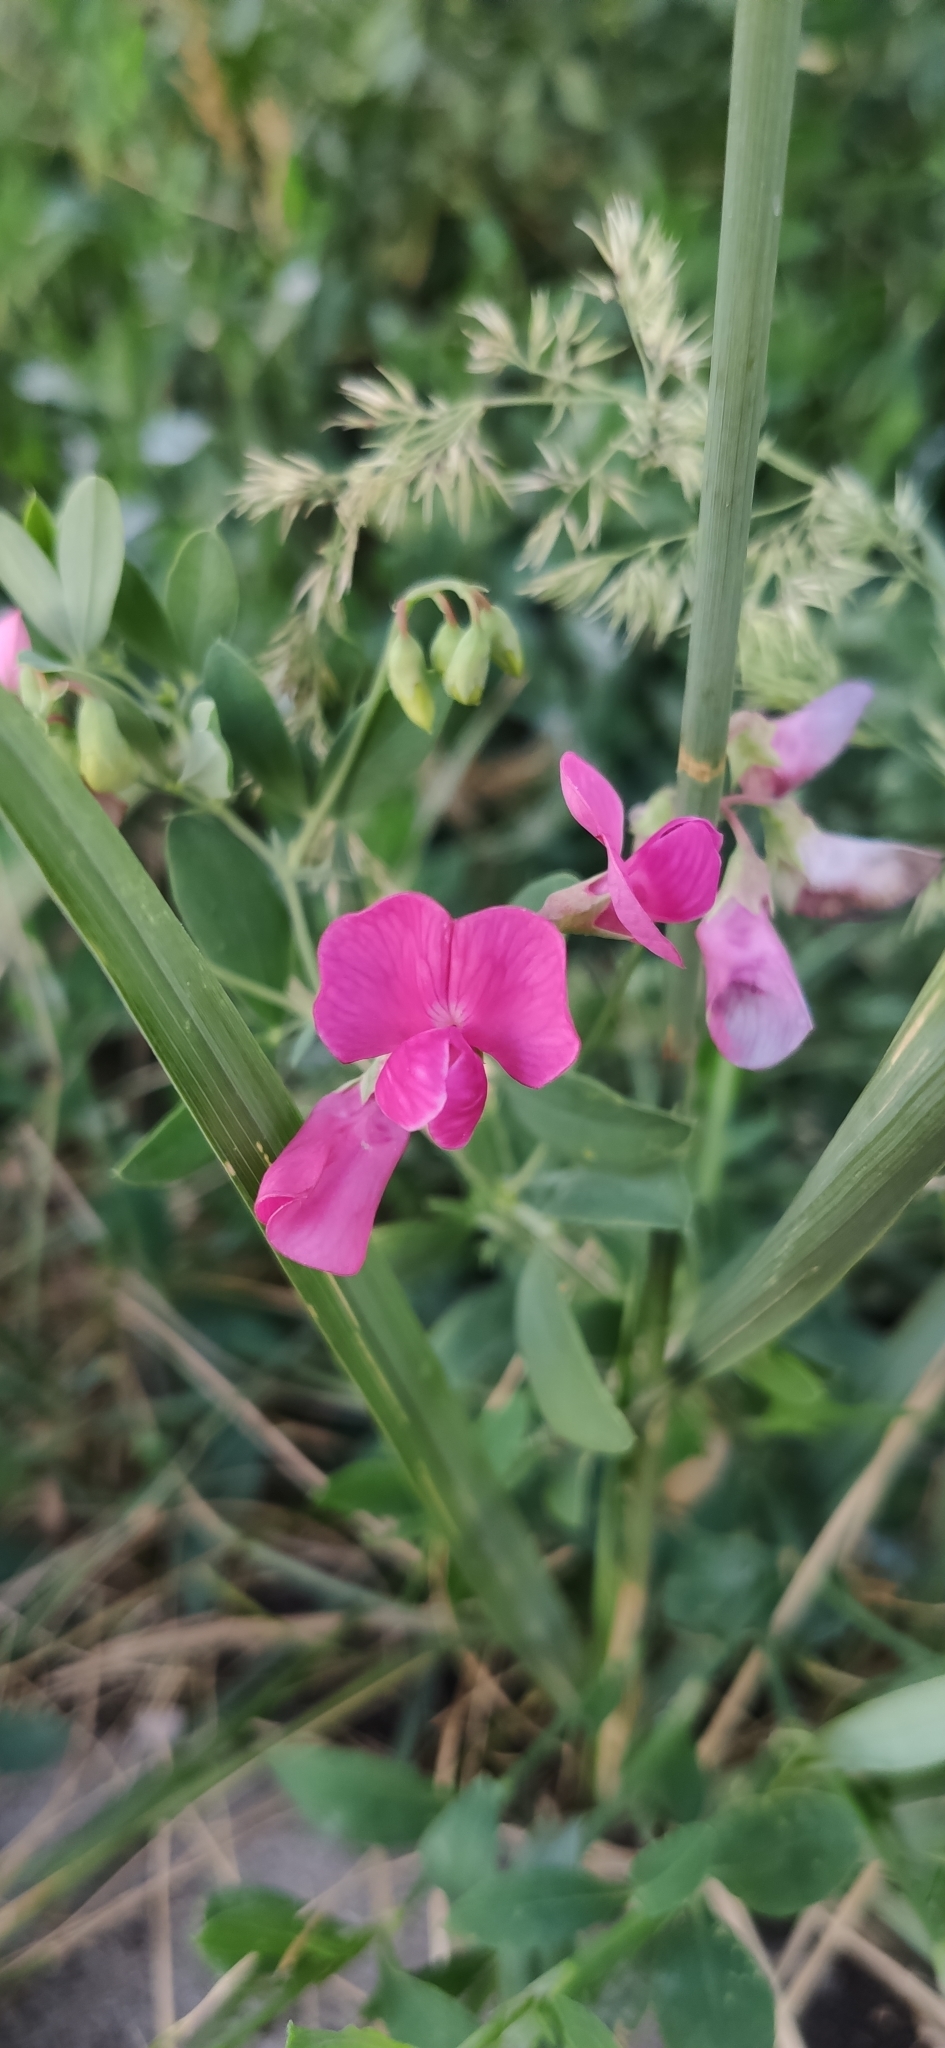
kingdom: Plantae
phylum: Tracheophyta
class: Magnoliopsida
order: Fabales
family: Fabaceae
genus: Lathyrus
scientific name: Lathyrus tuberosus
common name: Tuberous pea
